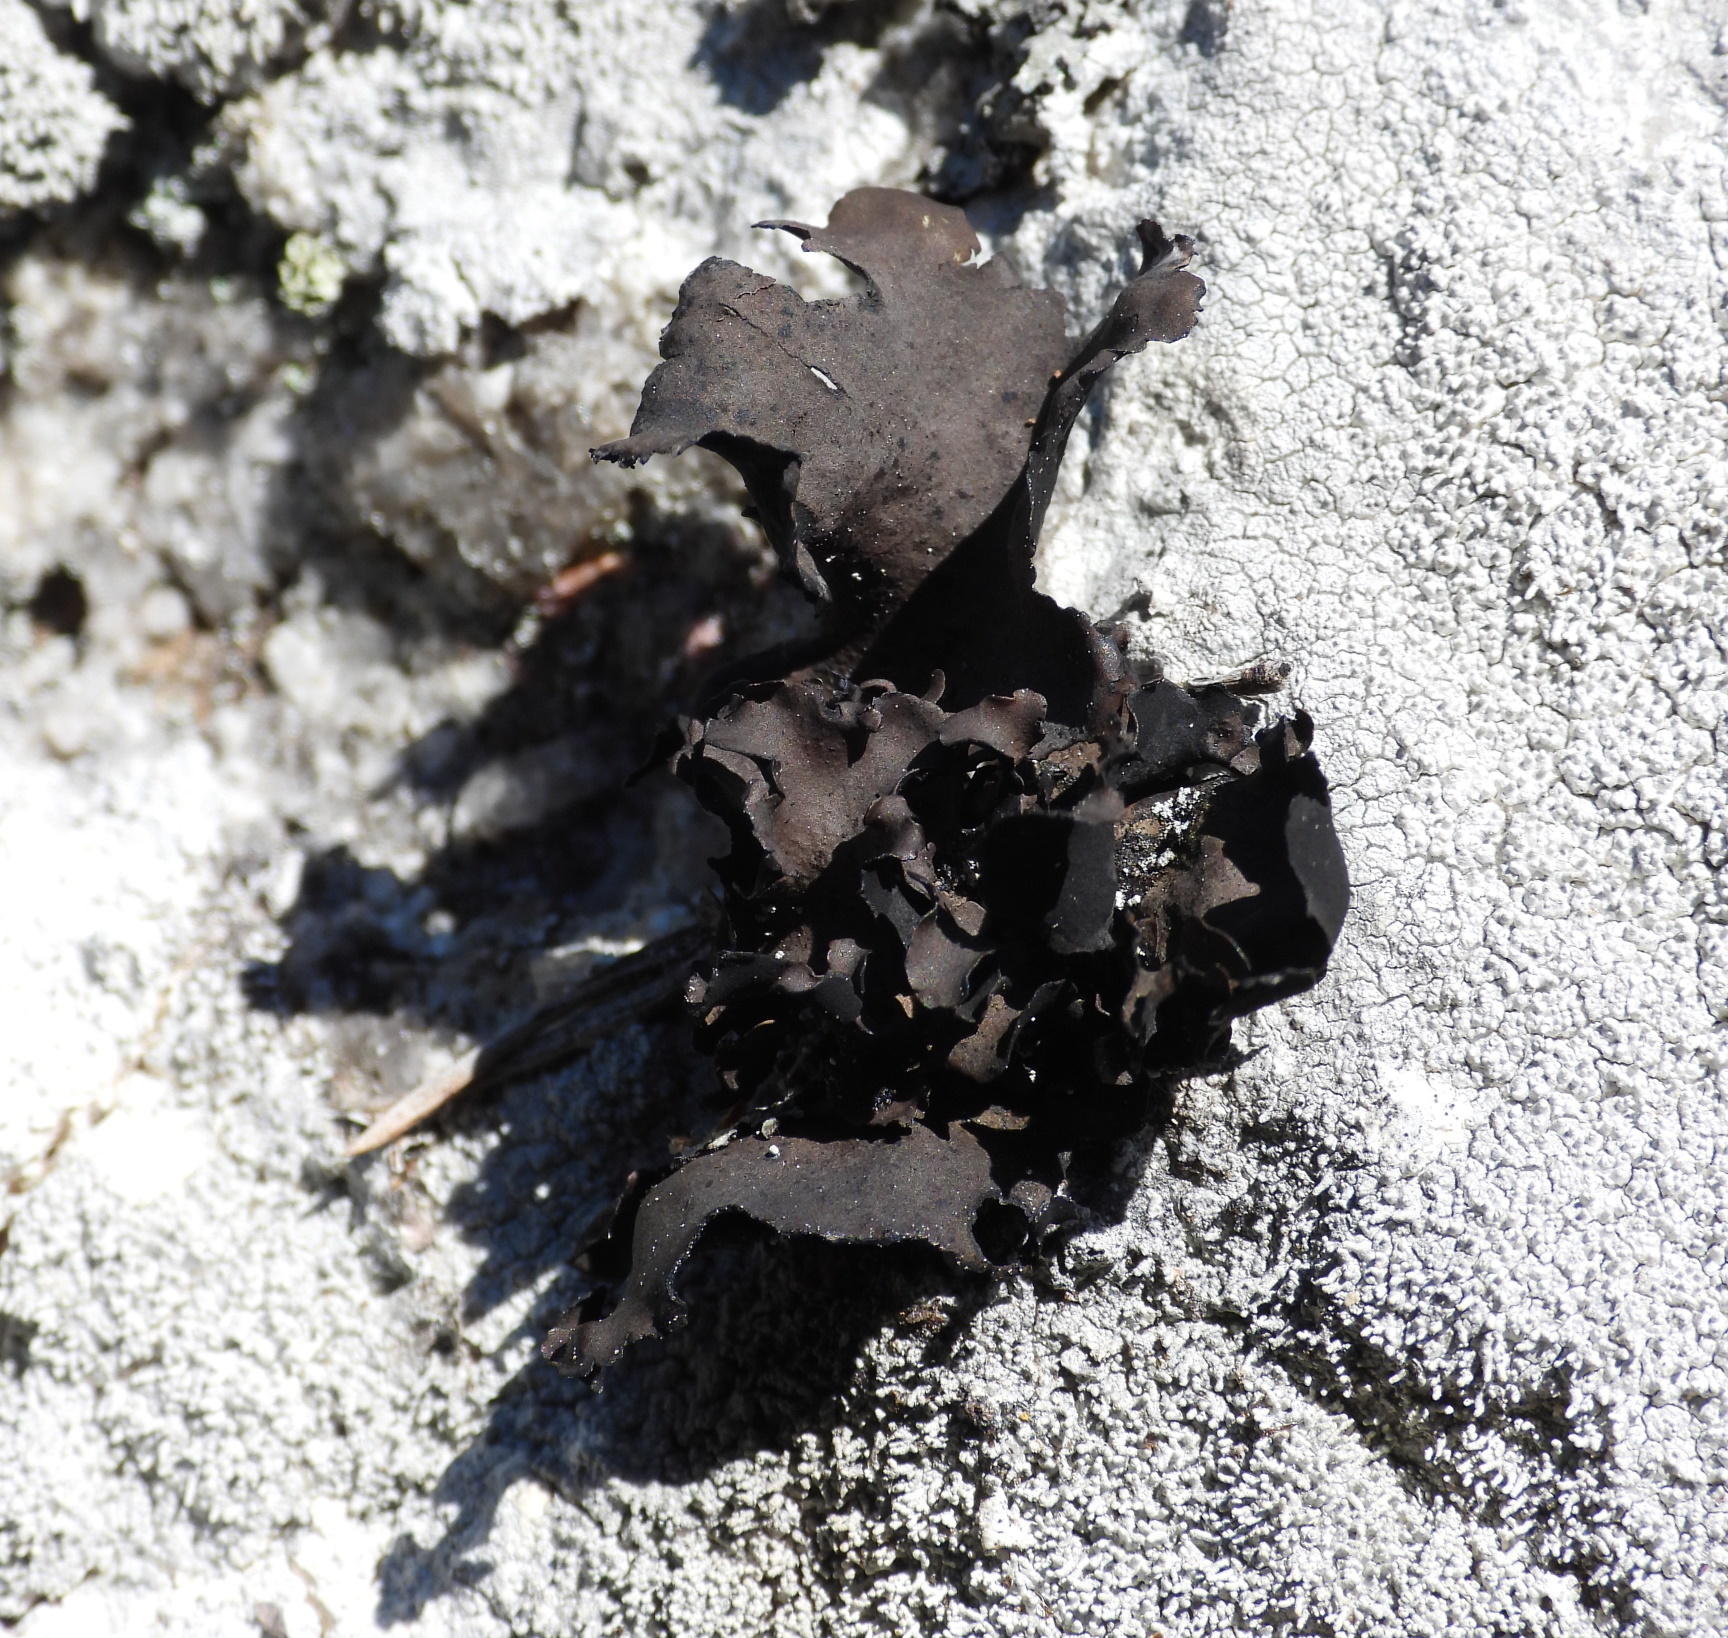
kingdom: Fungi
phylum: Ascomycota
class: Lecanoromycetes
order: Umbilicariales
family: Umbilicariaceae
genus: Umbilicaria
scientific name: Umbilicaria polyphylla
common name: Petalled rocktripe lichen
